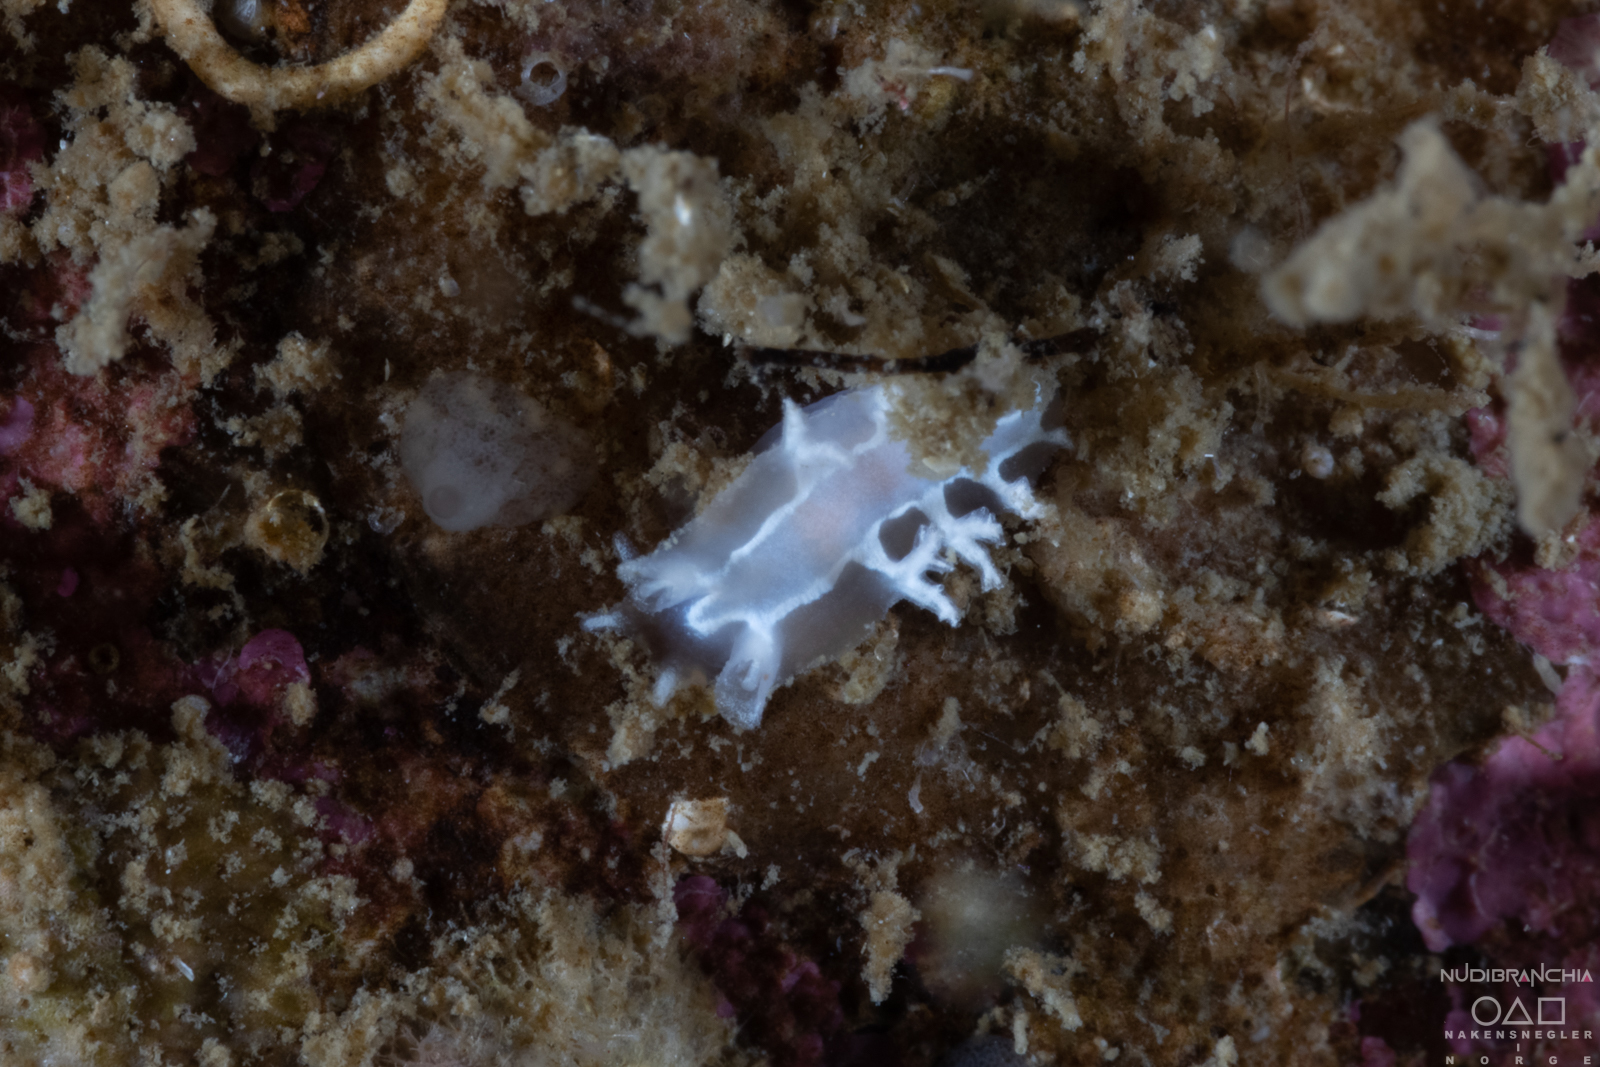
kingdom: Animalia
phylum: Mollusca
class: Gastropoda
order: Nudibranchia
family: Tritoniidae
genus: Duvaucelia
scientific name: Duvaucelia lineata
